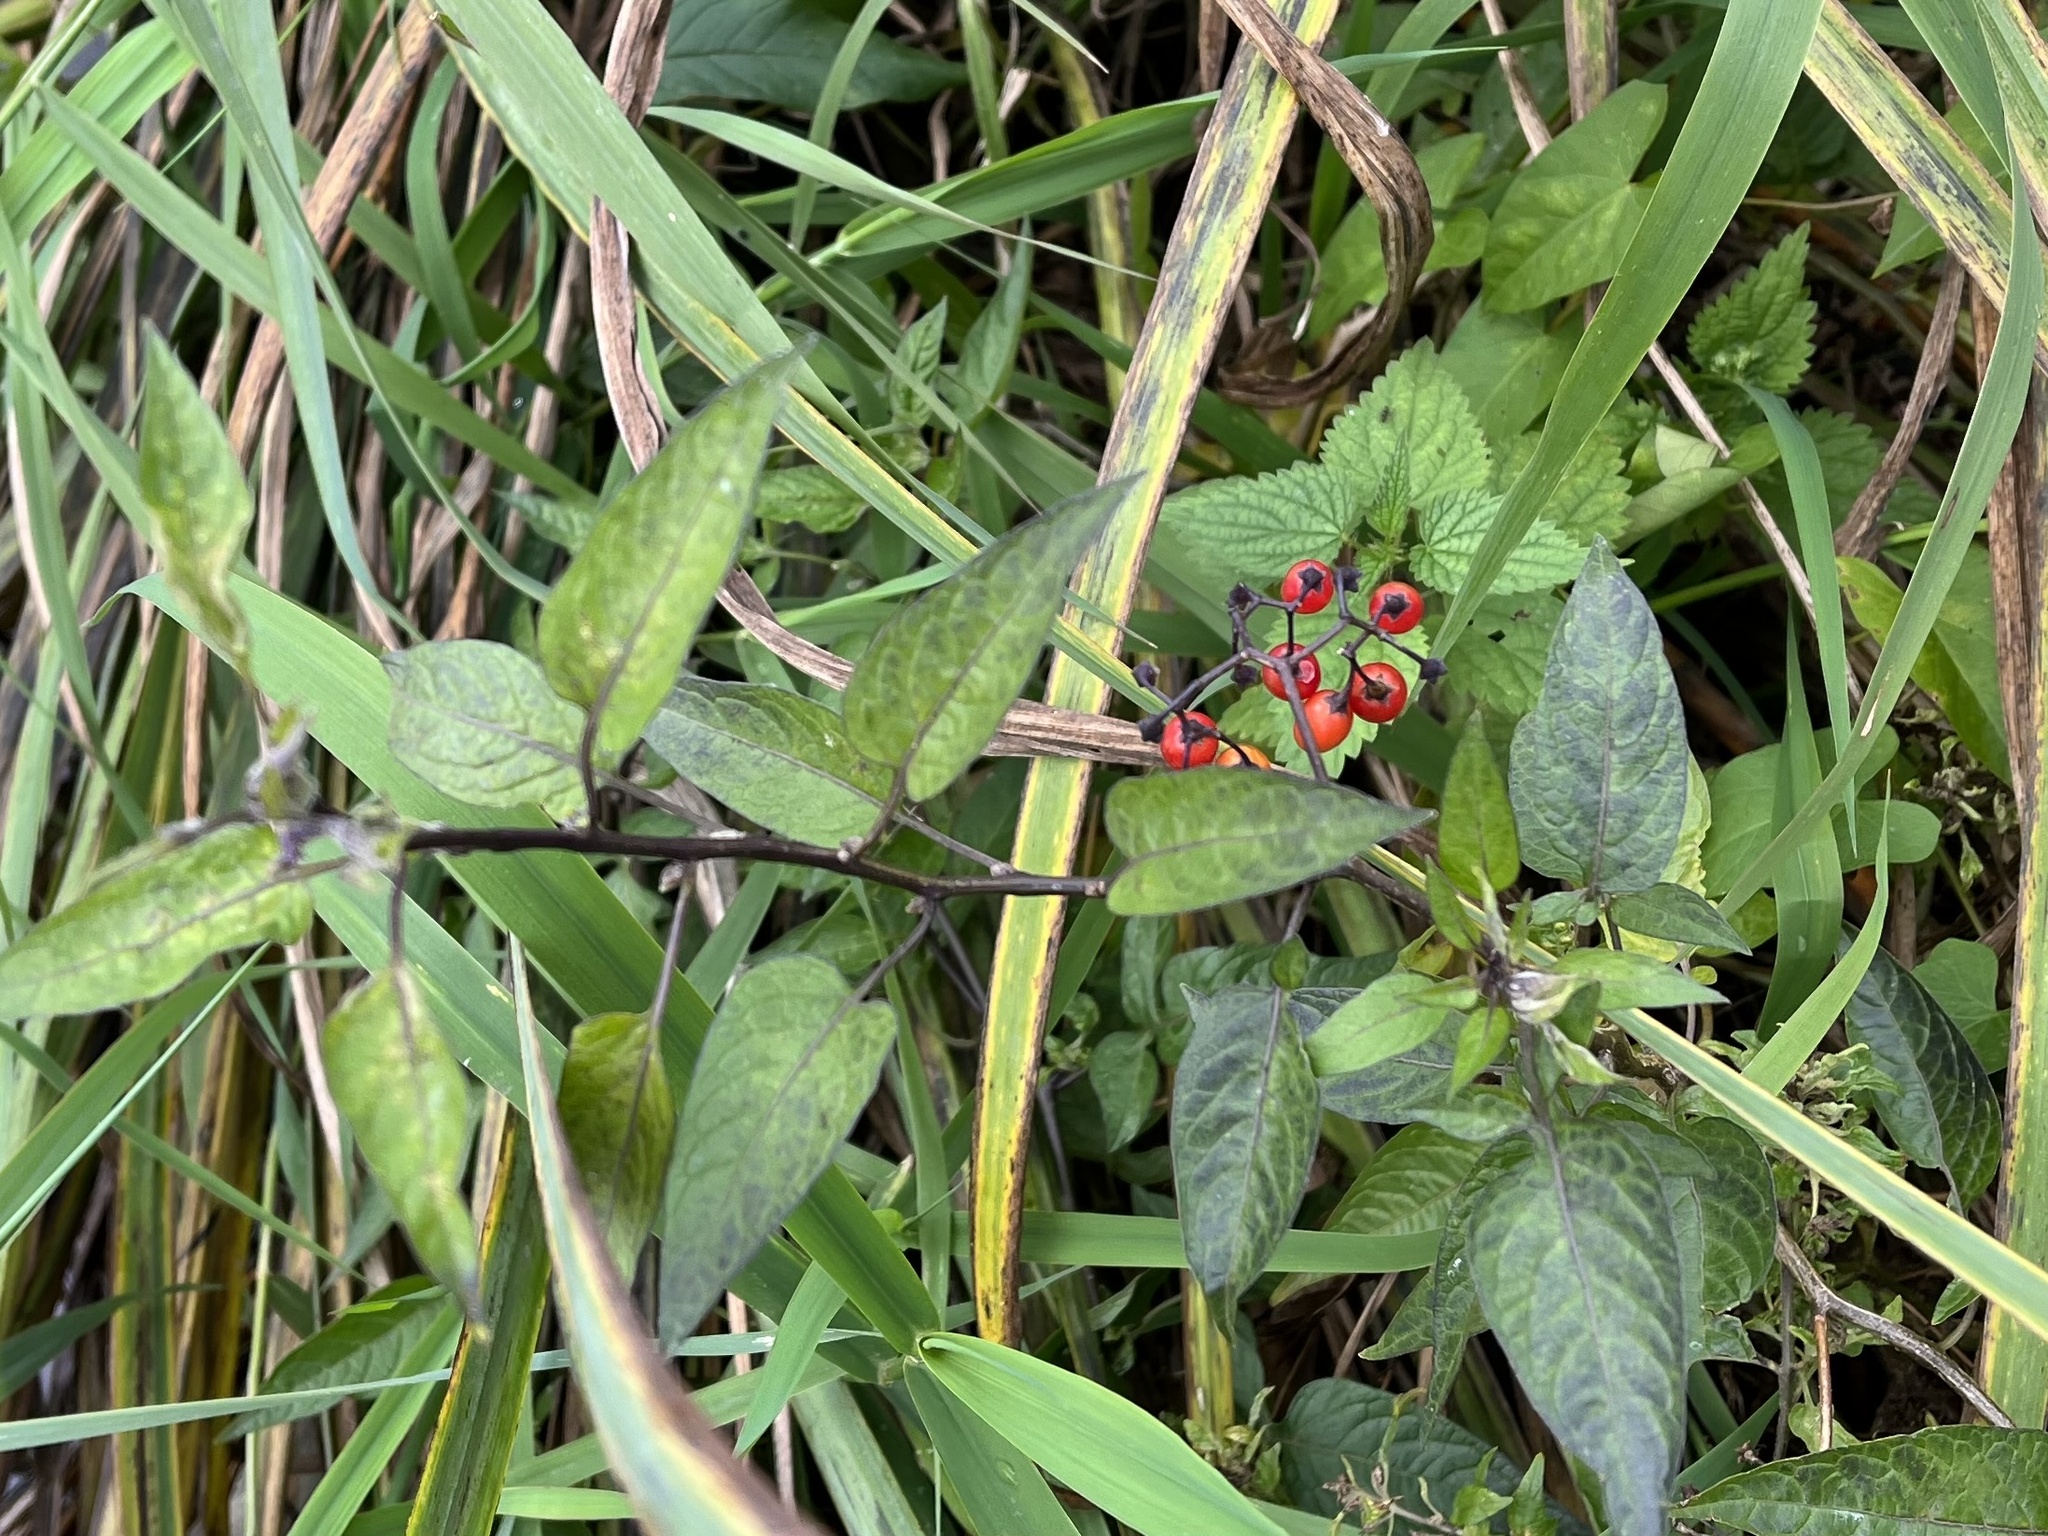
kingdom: Plantae
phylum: Tracheophyta
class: Magnoliopsida
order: Solanales
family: Solanaceae
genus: Solanum
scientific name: Solanum dulcamara
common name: Climbing nightshade
